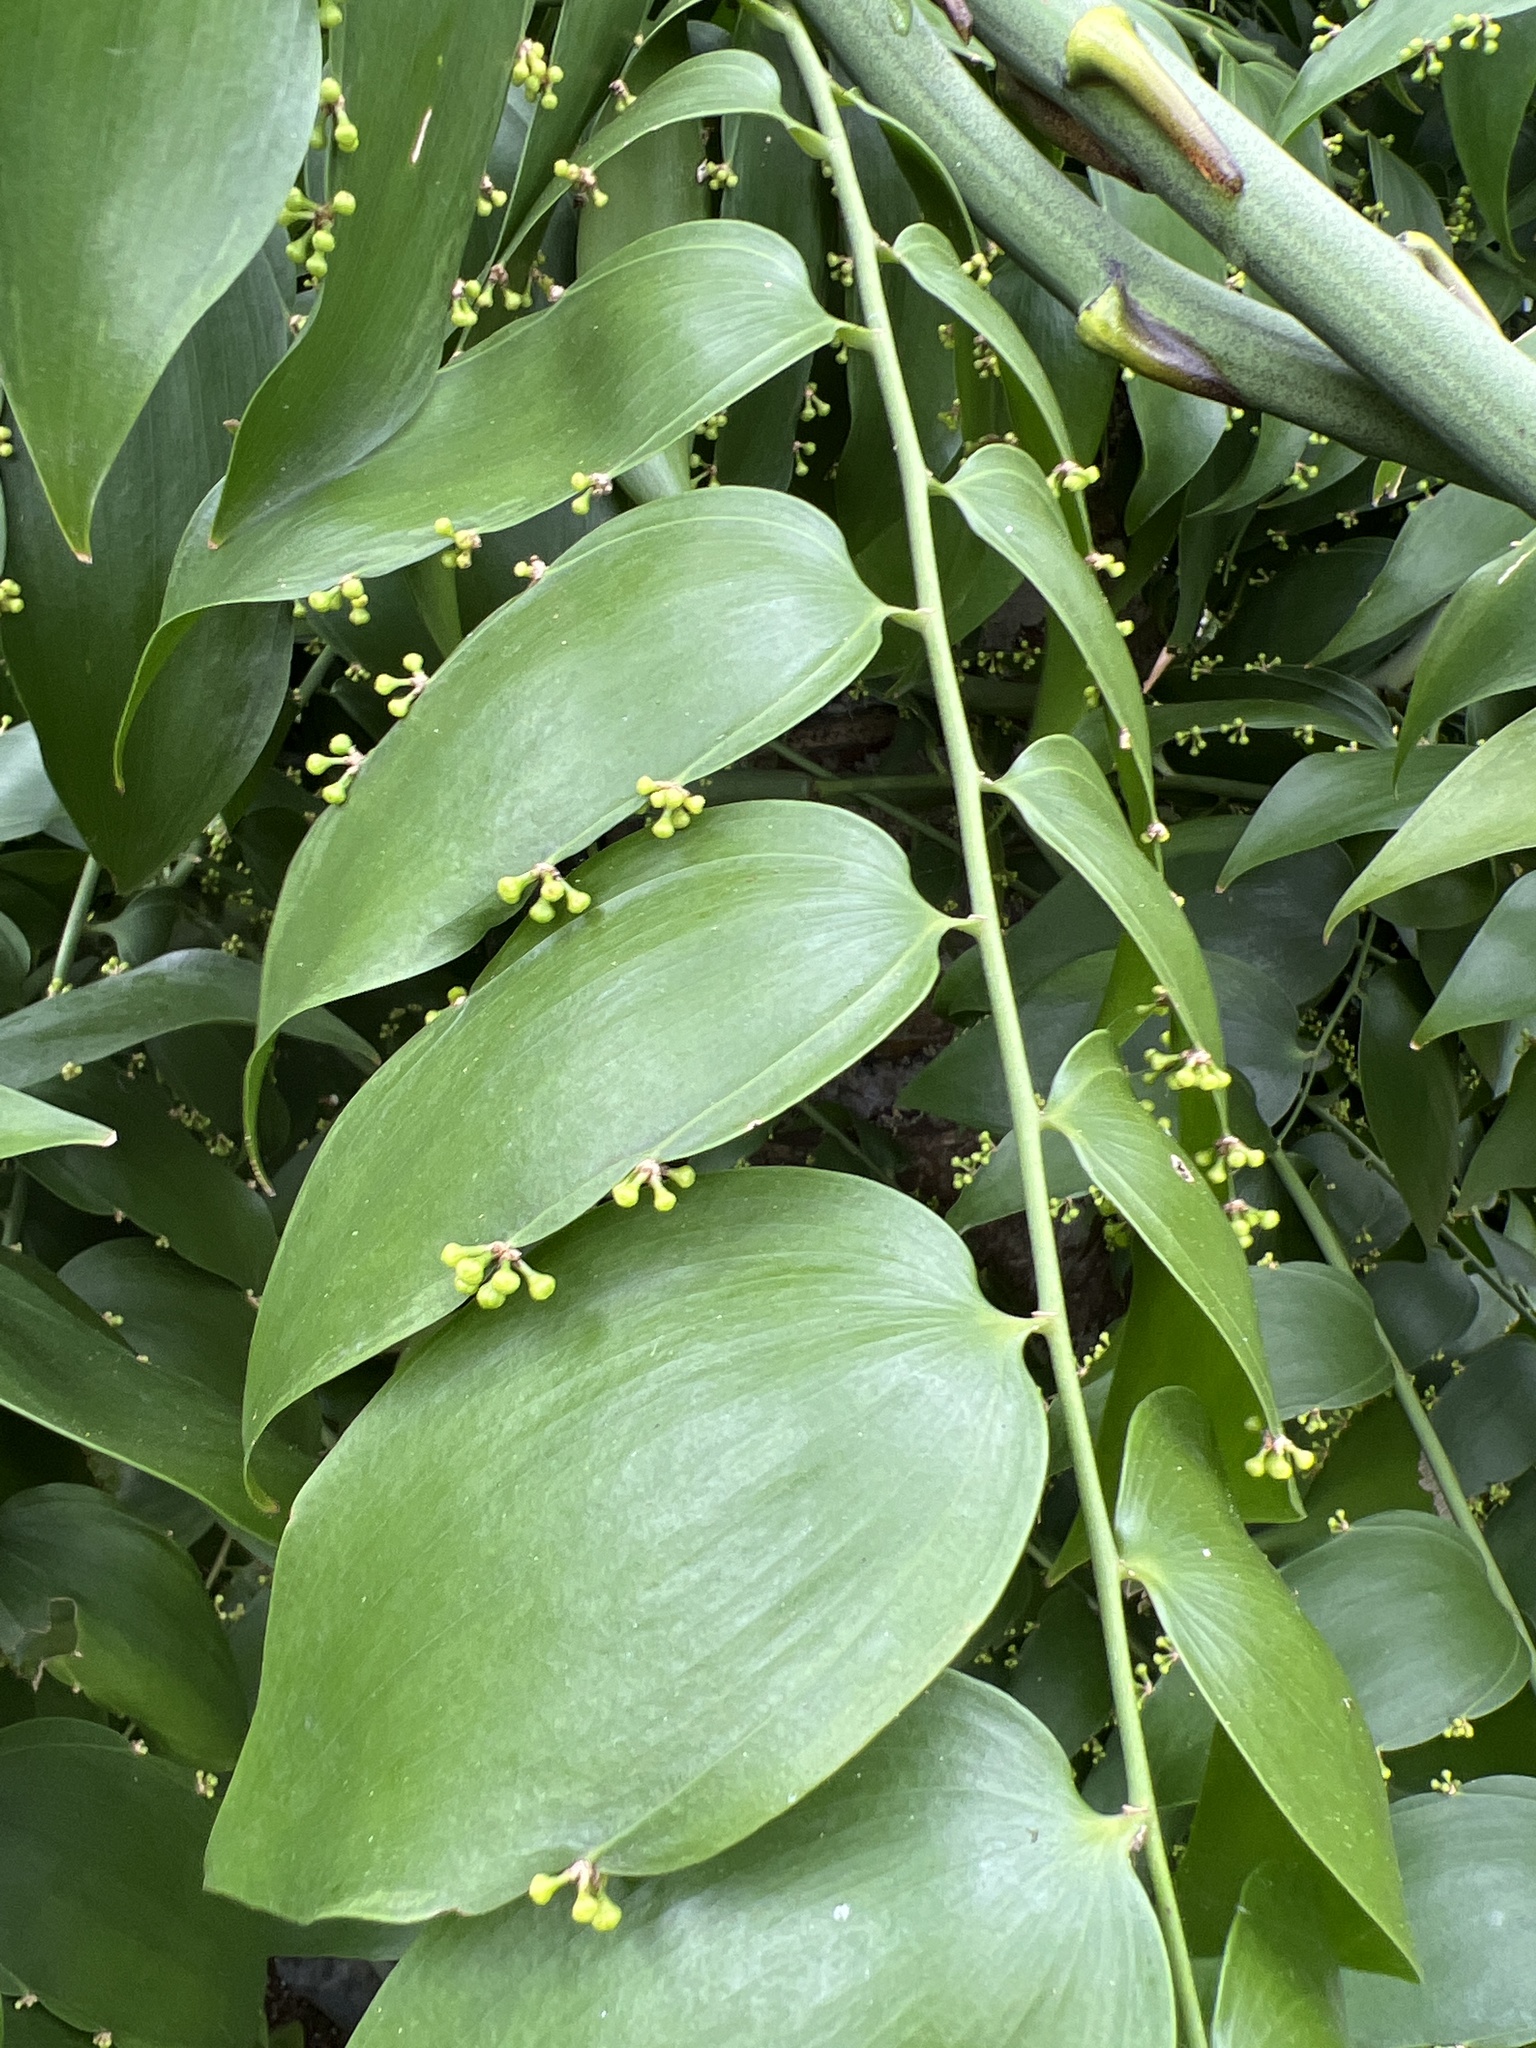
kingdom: Plantae
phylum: Tracheophyta
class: Liliopsida
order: Asparagales
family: Asparagaceae
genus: Semele
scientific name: Semele androgyna
